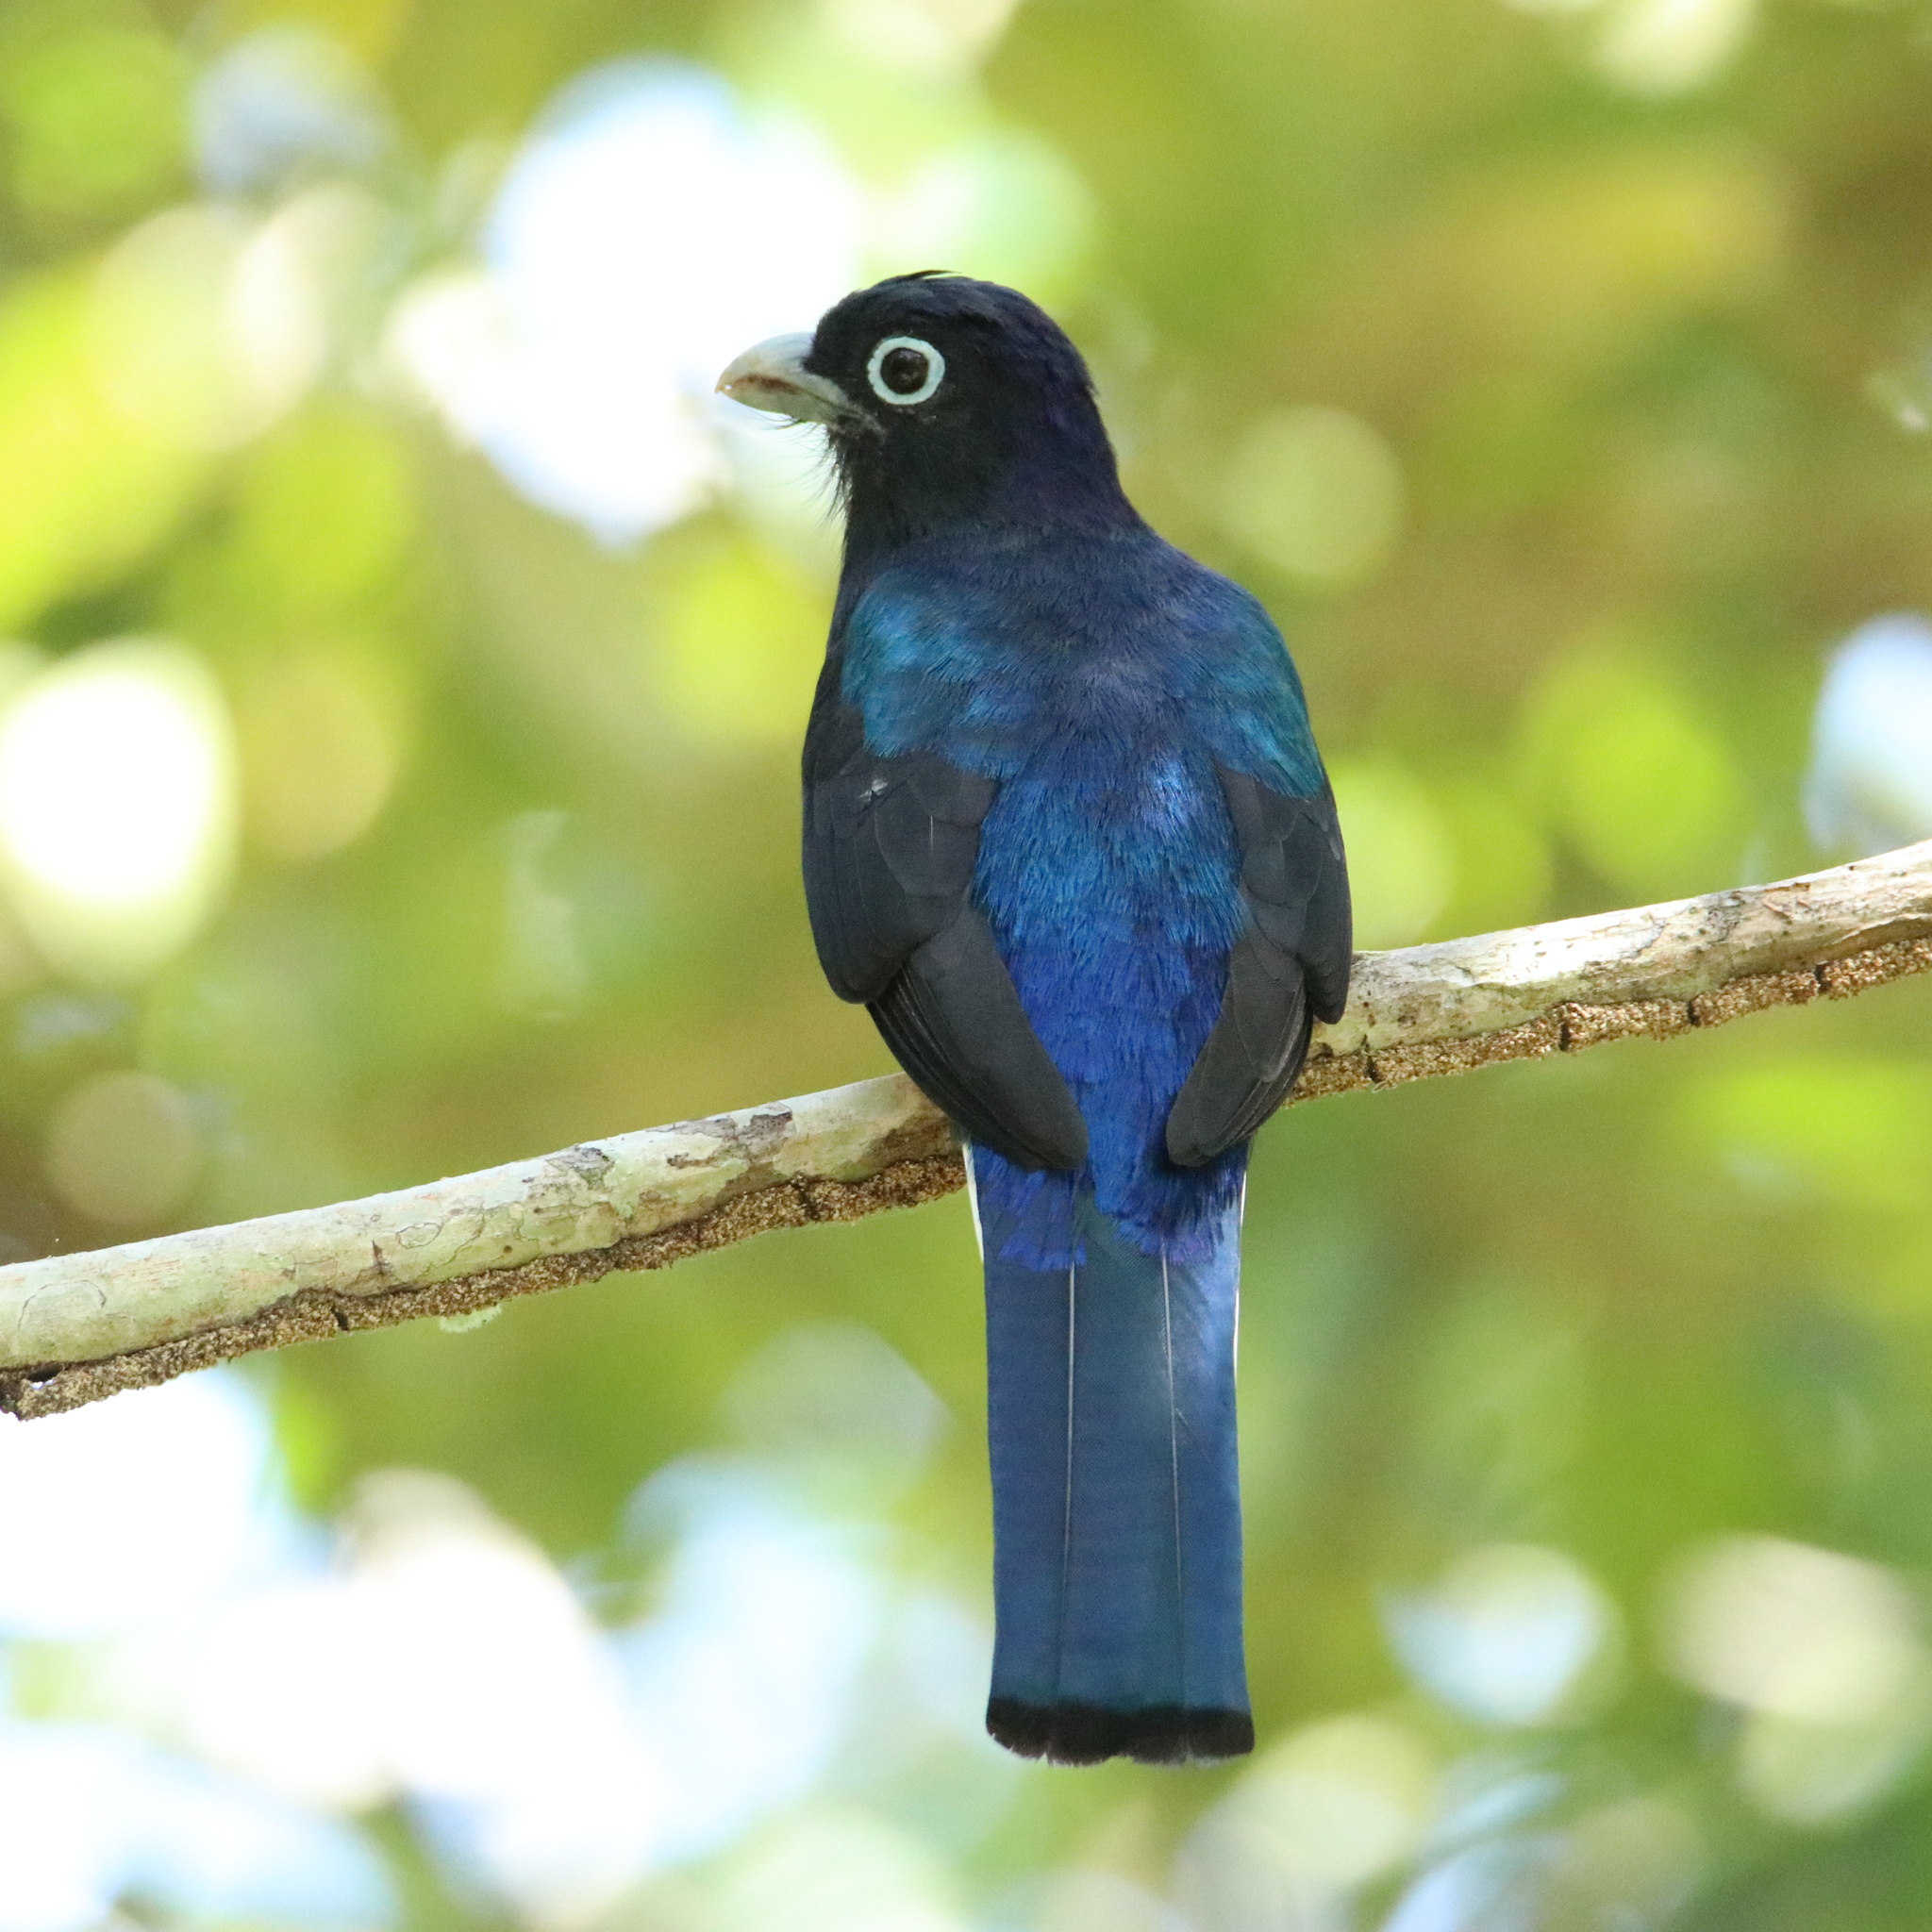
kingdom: Animalia
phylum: Chordata
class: Aves
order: Trogoniformes
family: Trogonidae
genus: Trogon
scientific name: Trogon chionurus
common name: White-tailed trogon
